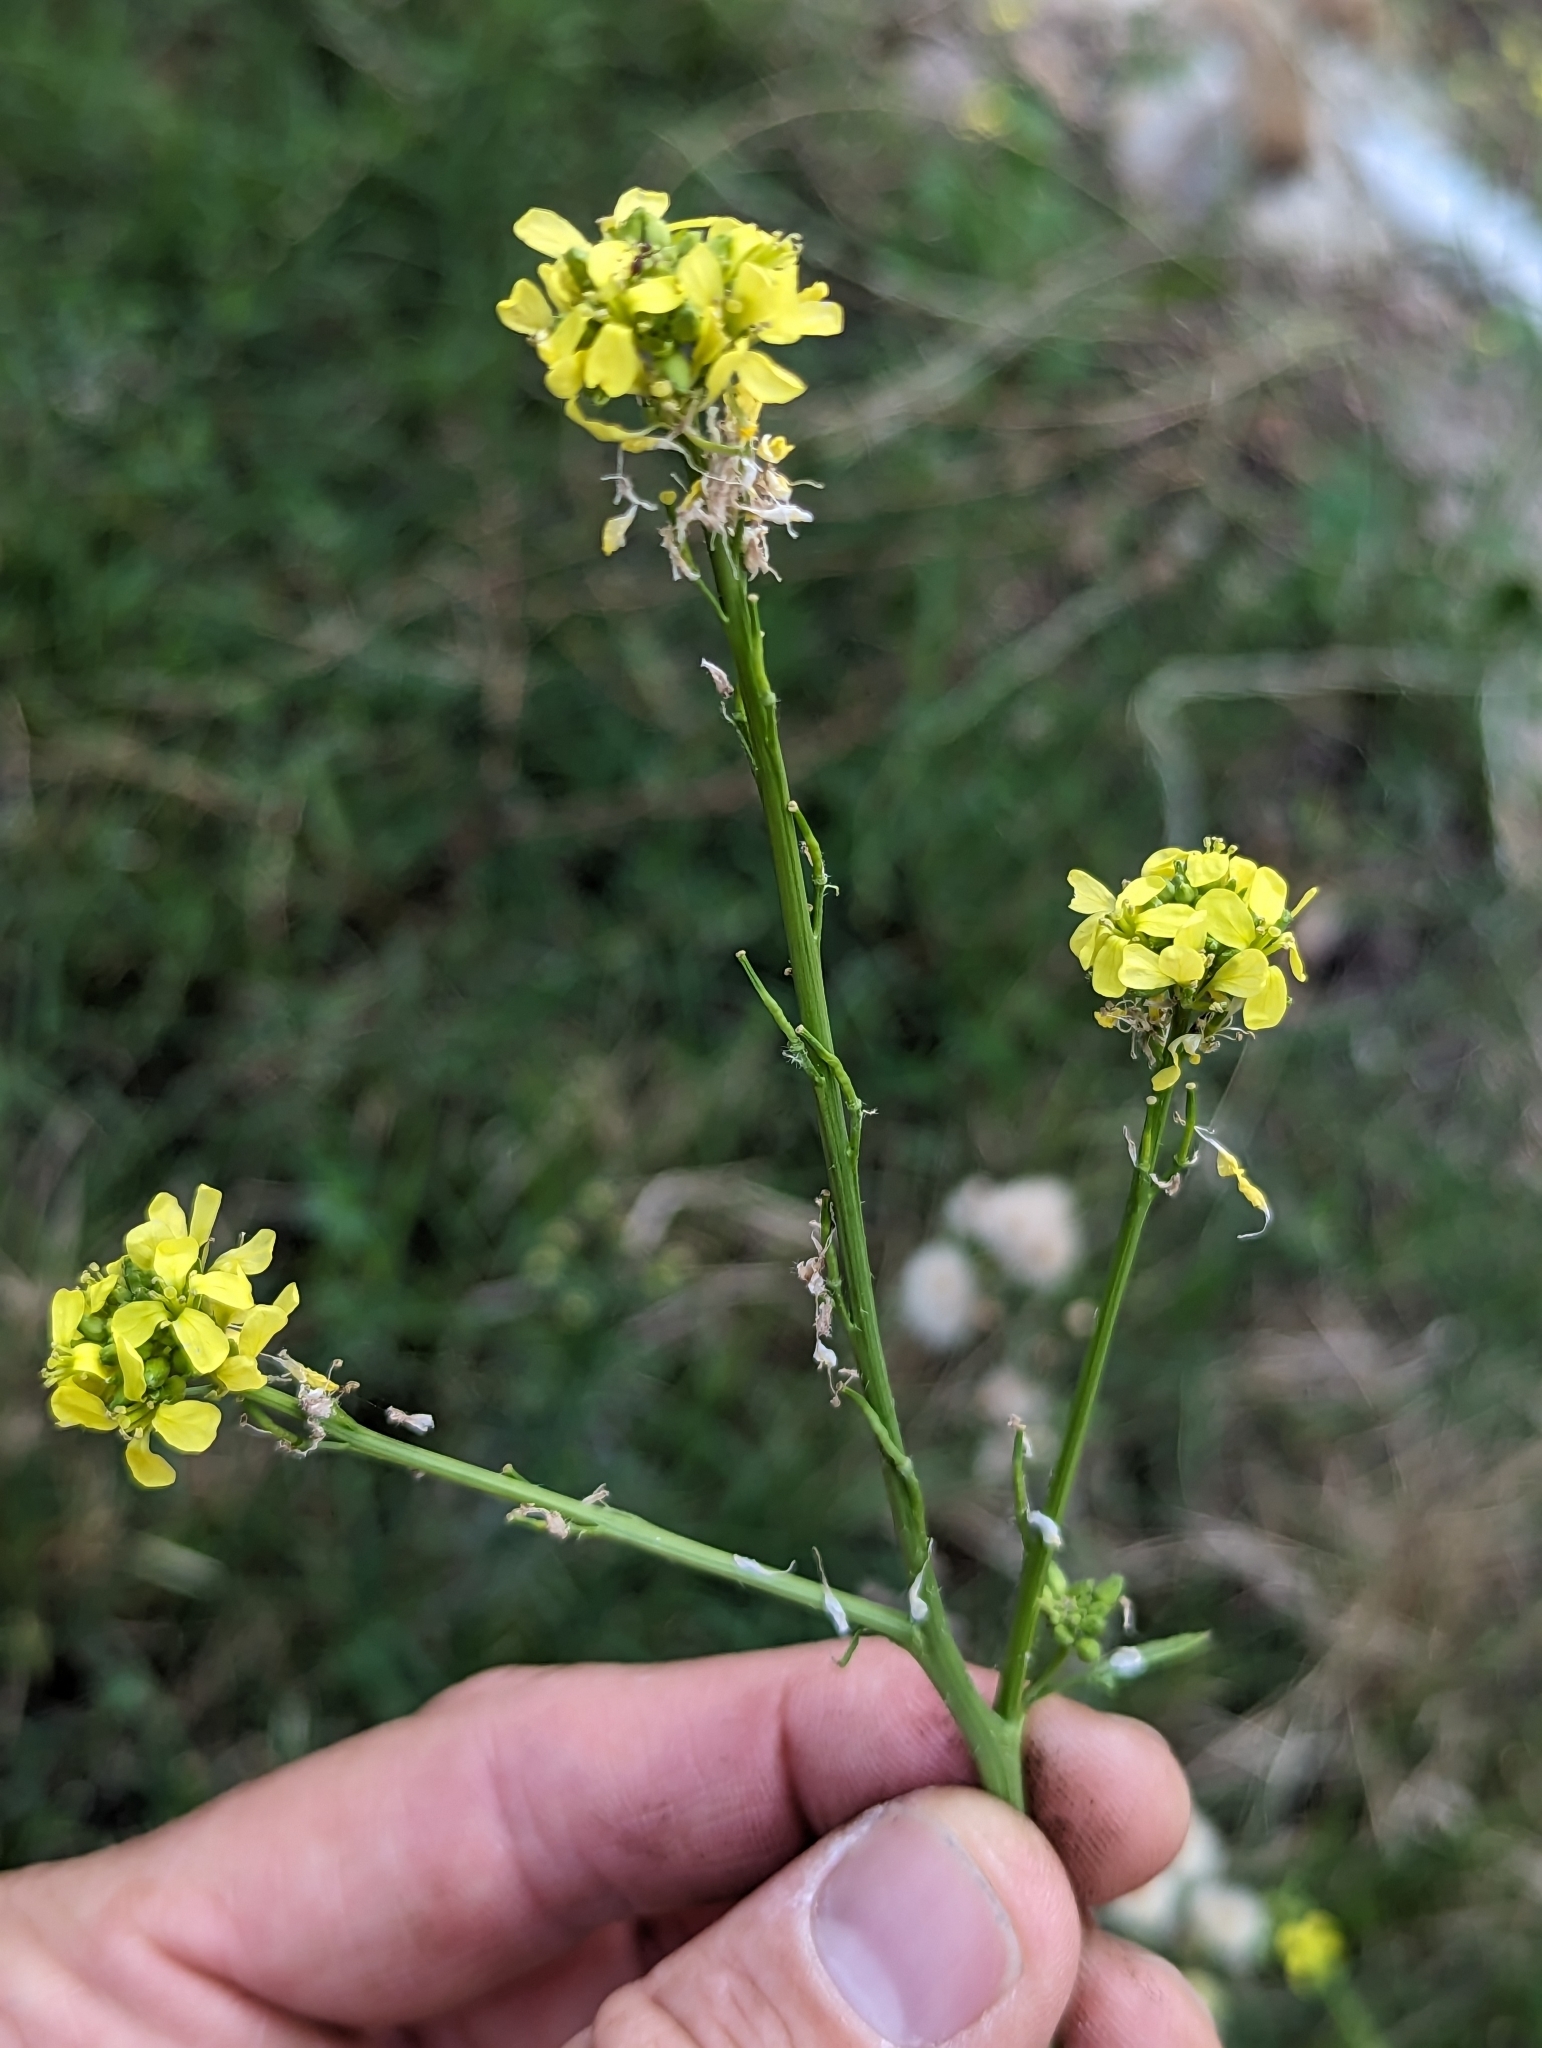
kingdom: Plantae
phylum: Tracheophyta
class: Magnoliopsida
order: Brassicales
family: Brassicaceae
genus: Hirschfeldia
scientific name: Hirschfeldia incana
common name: Hoary mustard
